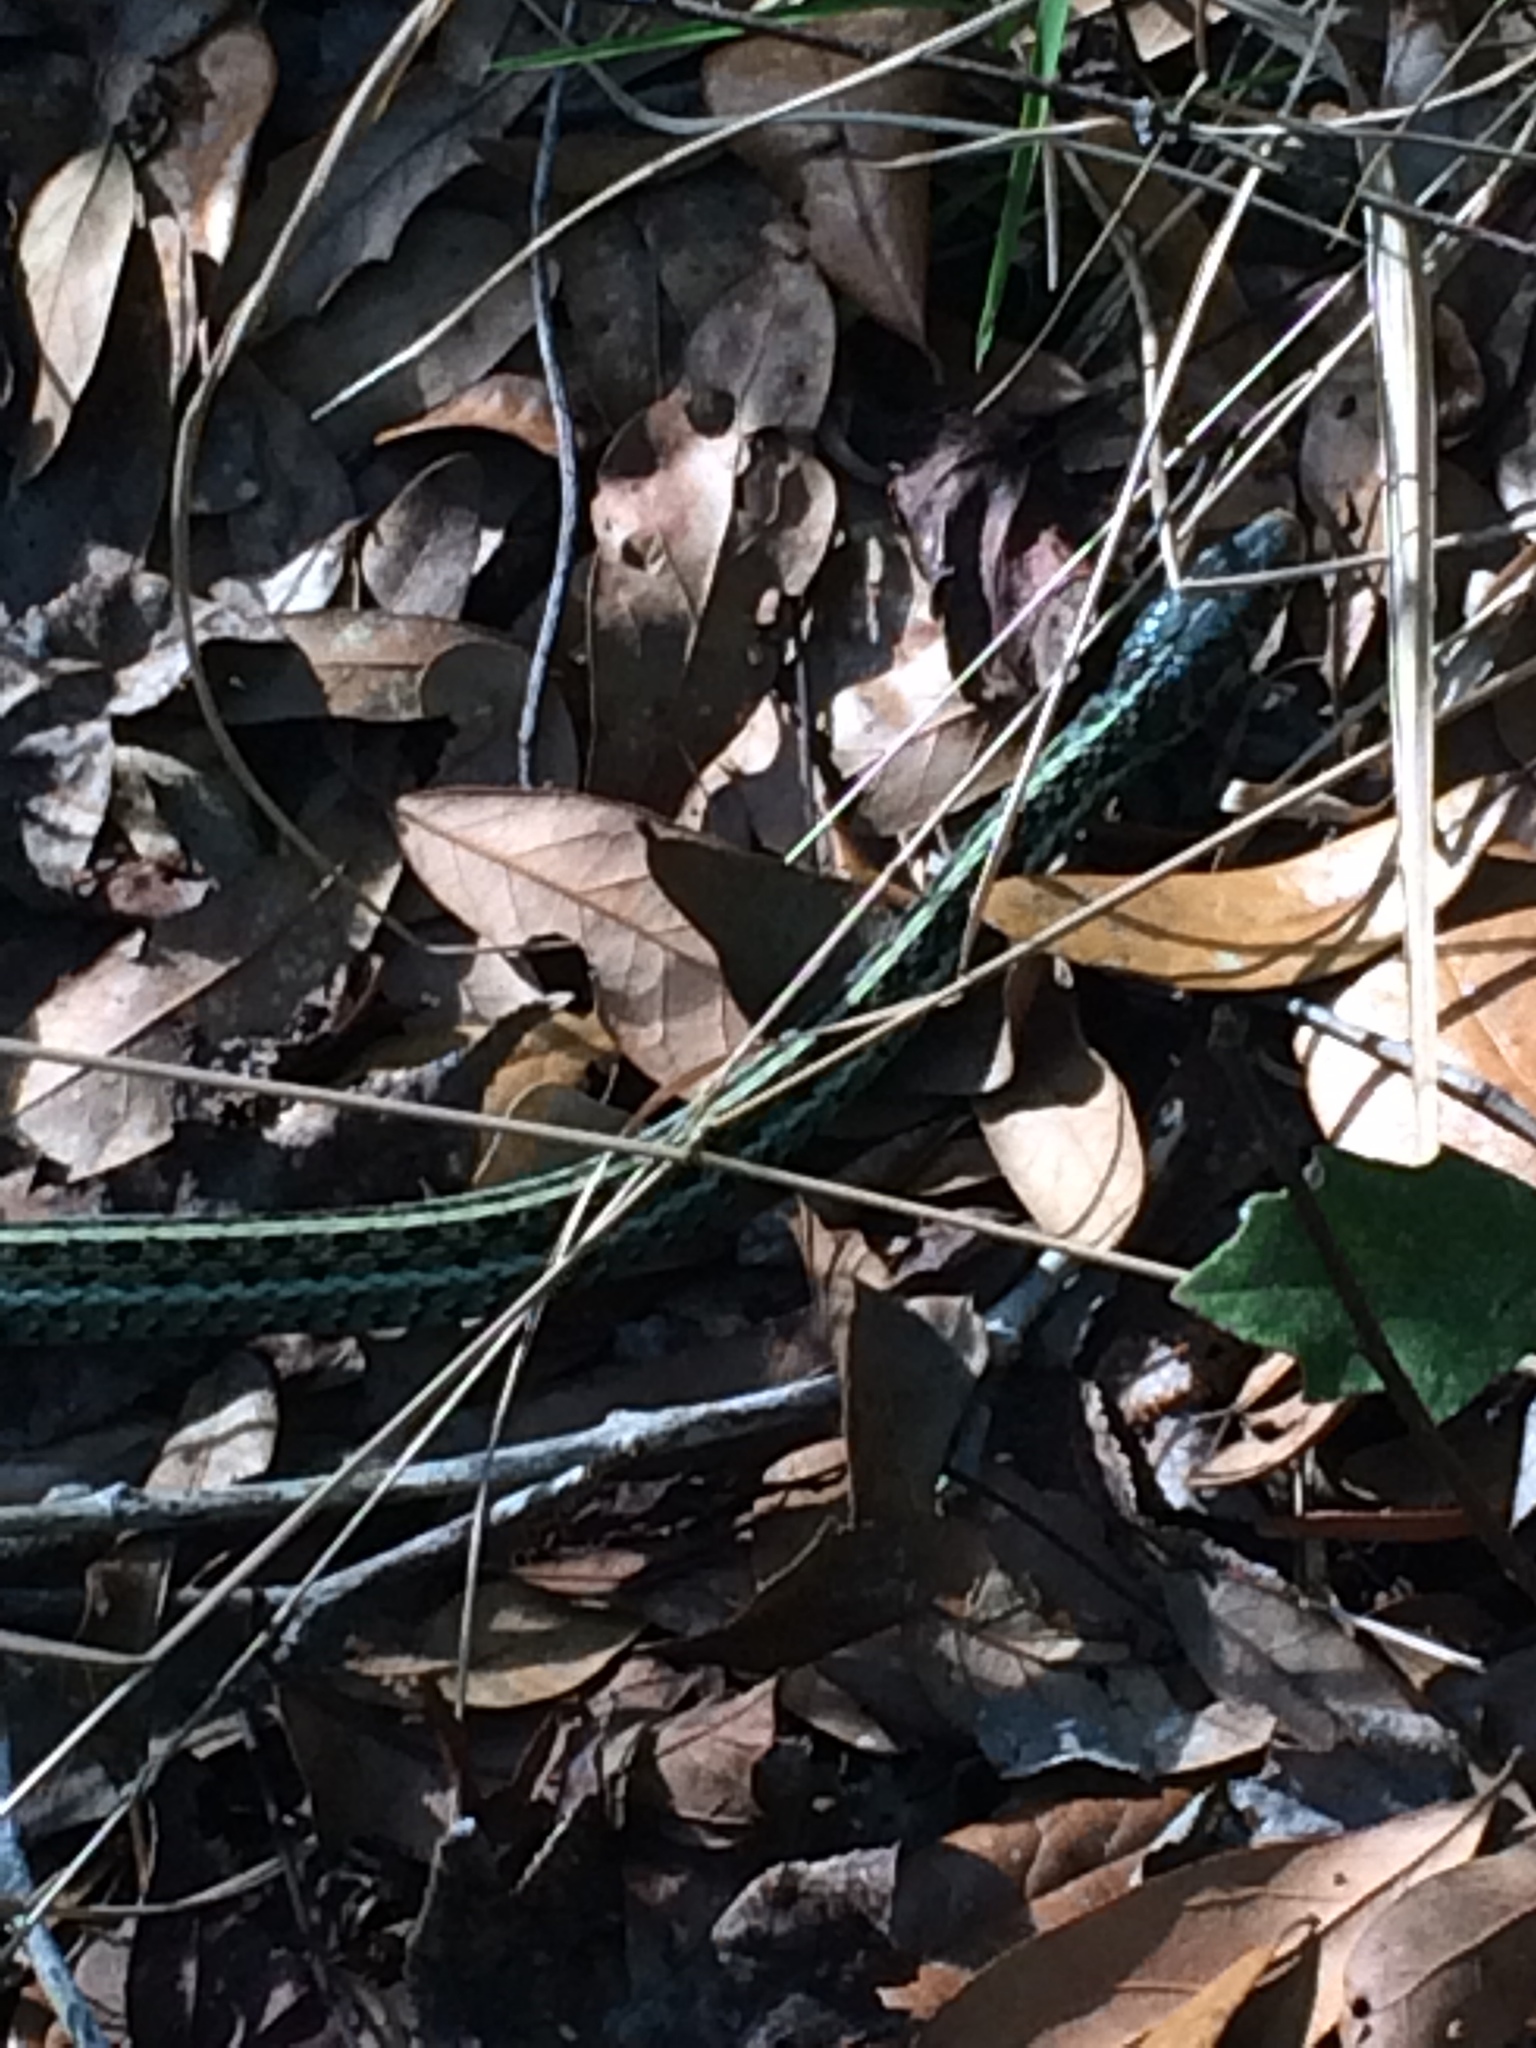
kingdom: Animalia
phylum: Chordata
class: Squamata
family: Colubridae
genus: Thamnophis
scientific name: Thamnophis sirtalis
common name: Common garter snake
